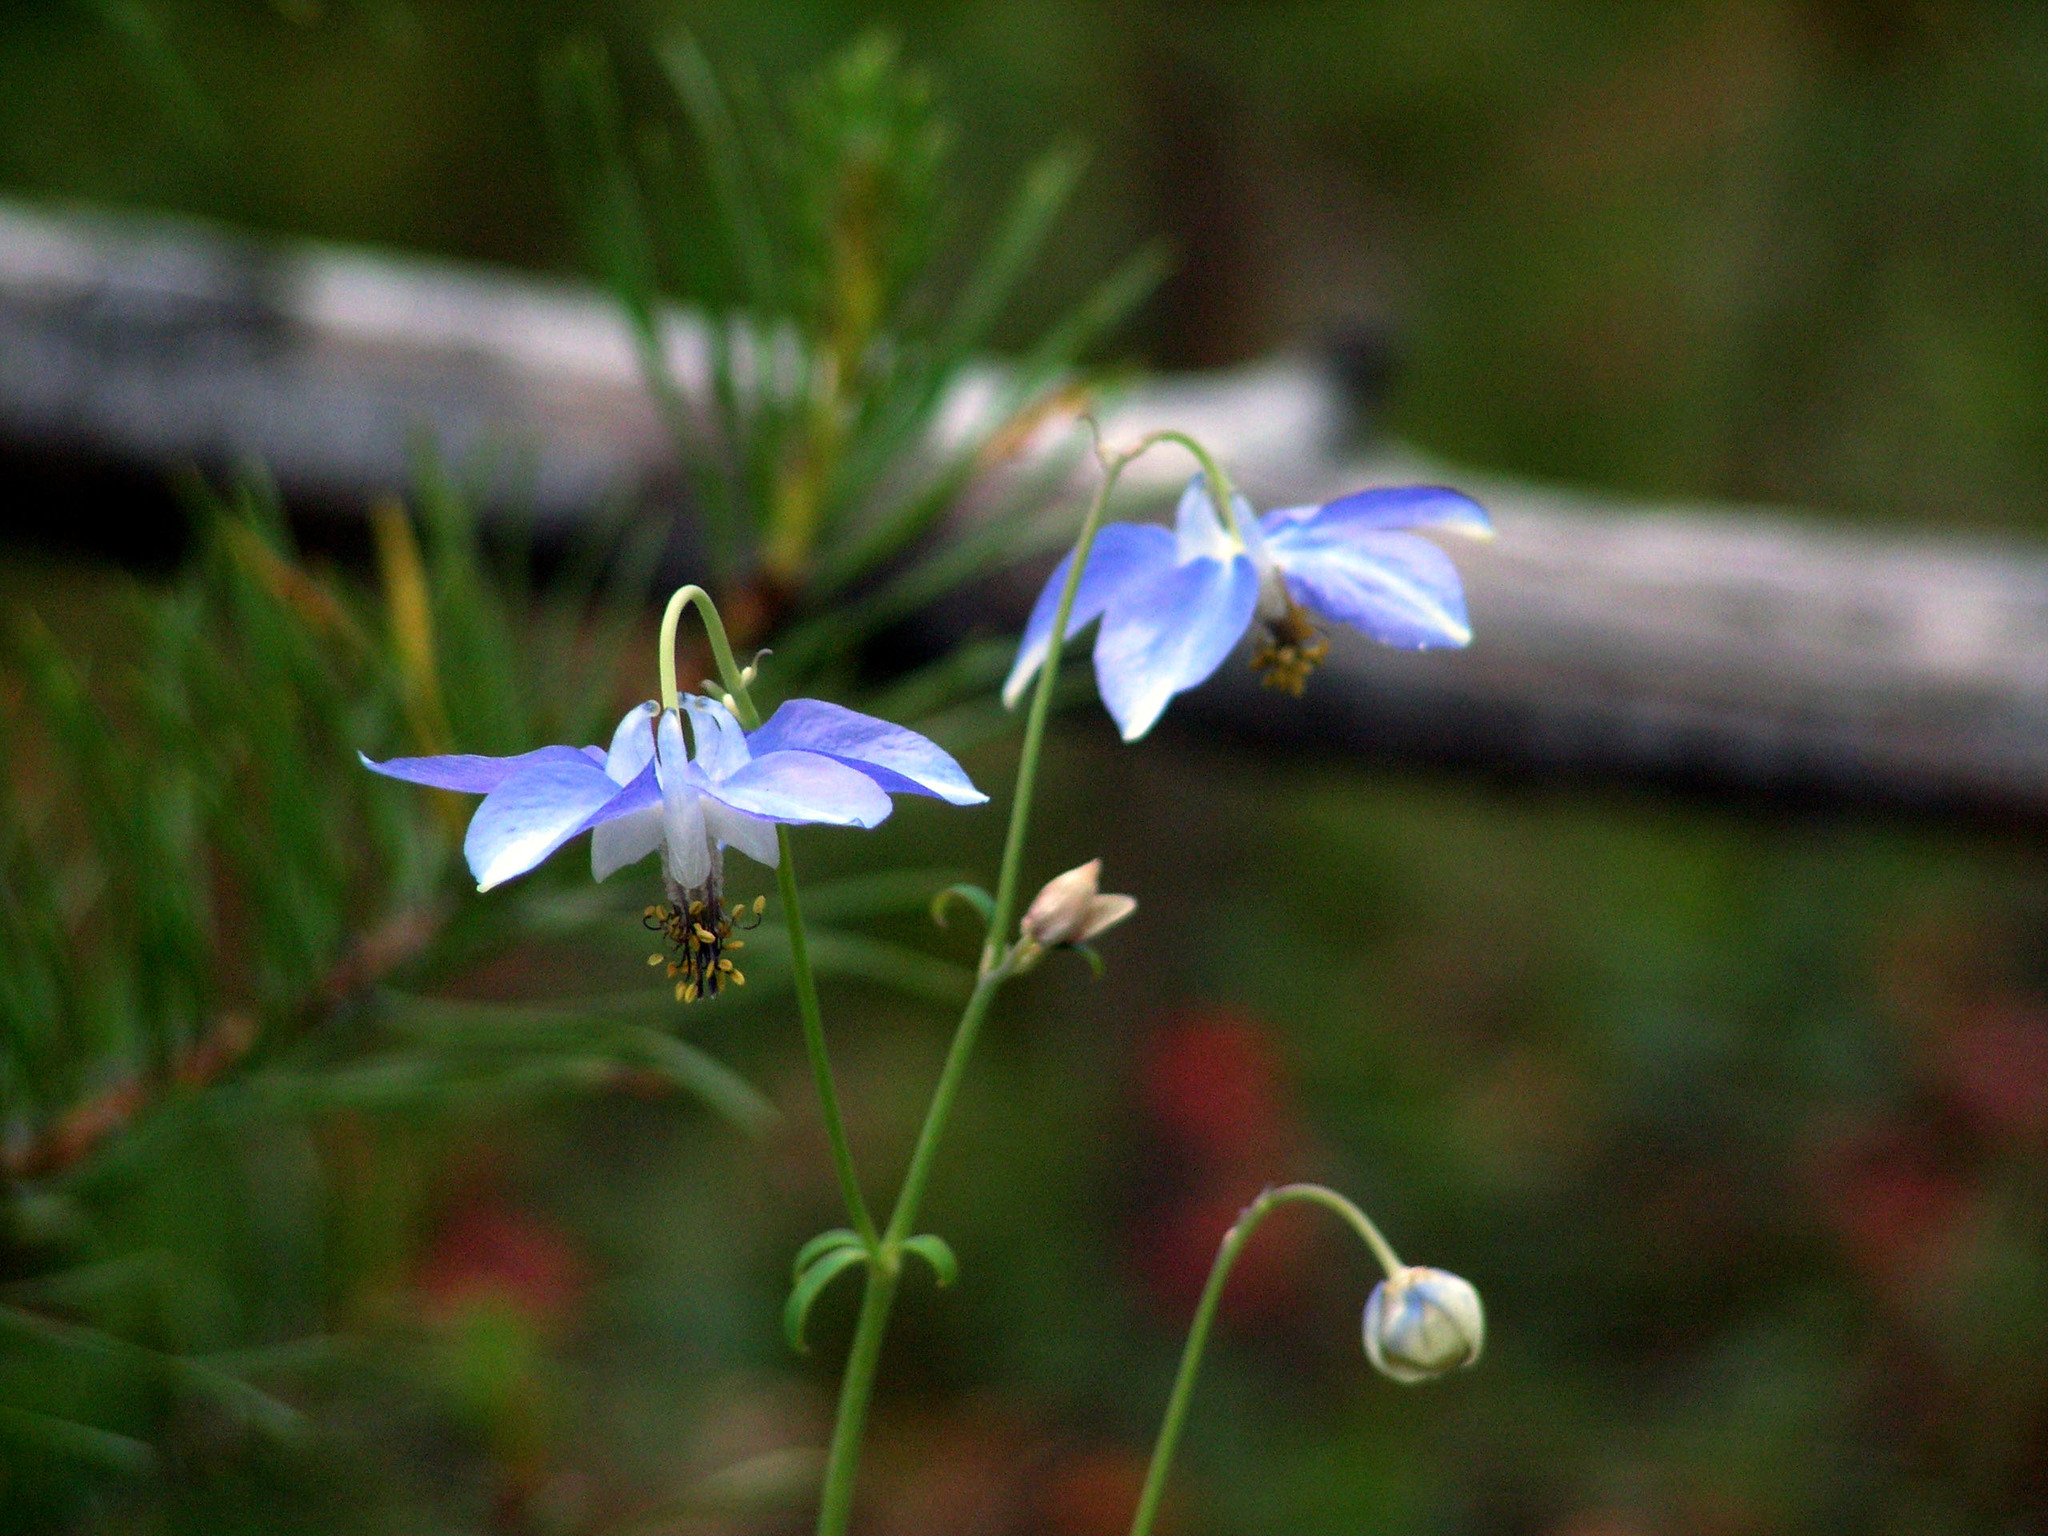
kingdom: Plantae
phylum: Tracheophyta
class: Magnoliopsida
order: Ranunculales
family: Ranunculaceae
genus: Aquilegia
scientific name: Aquilegia parviflora
